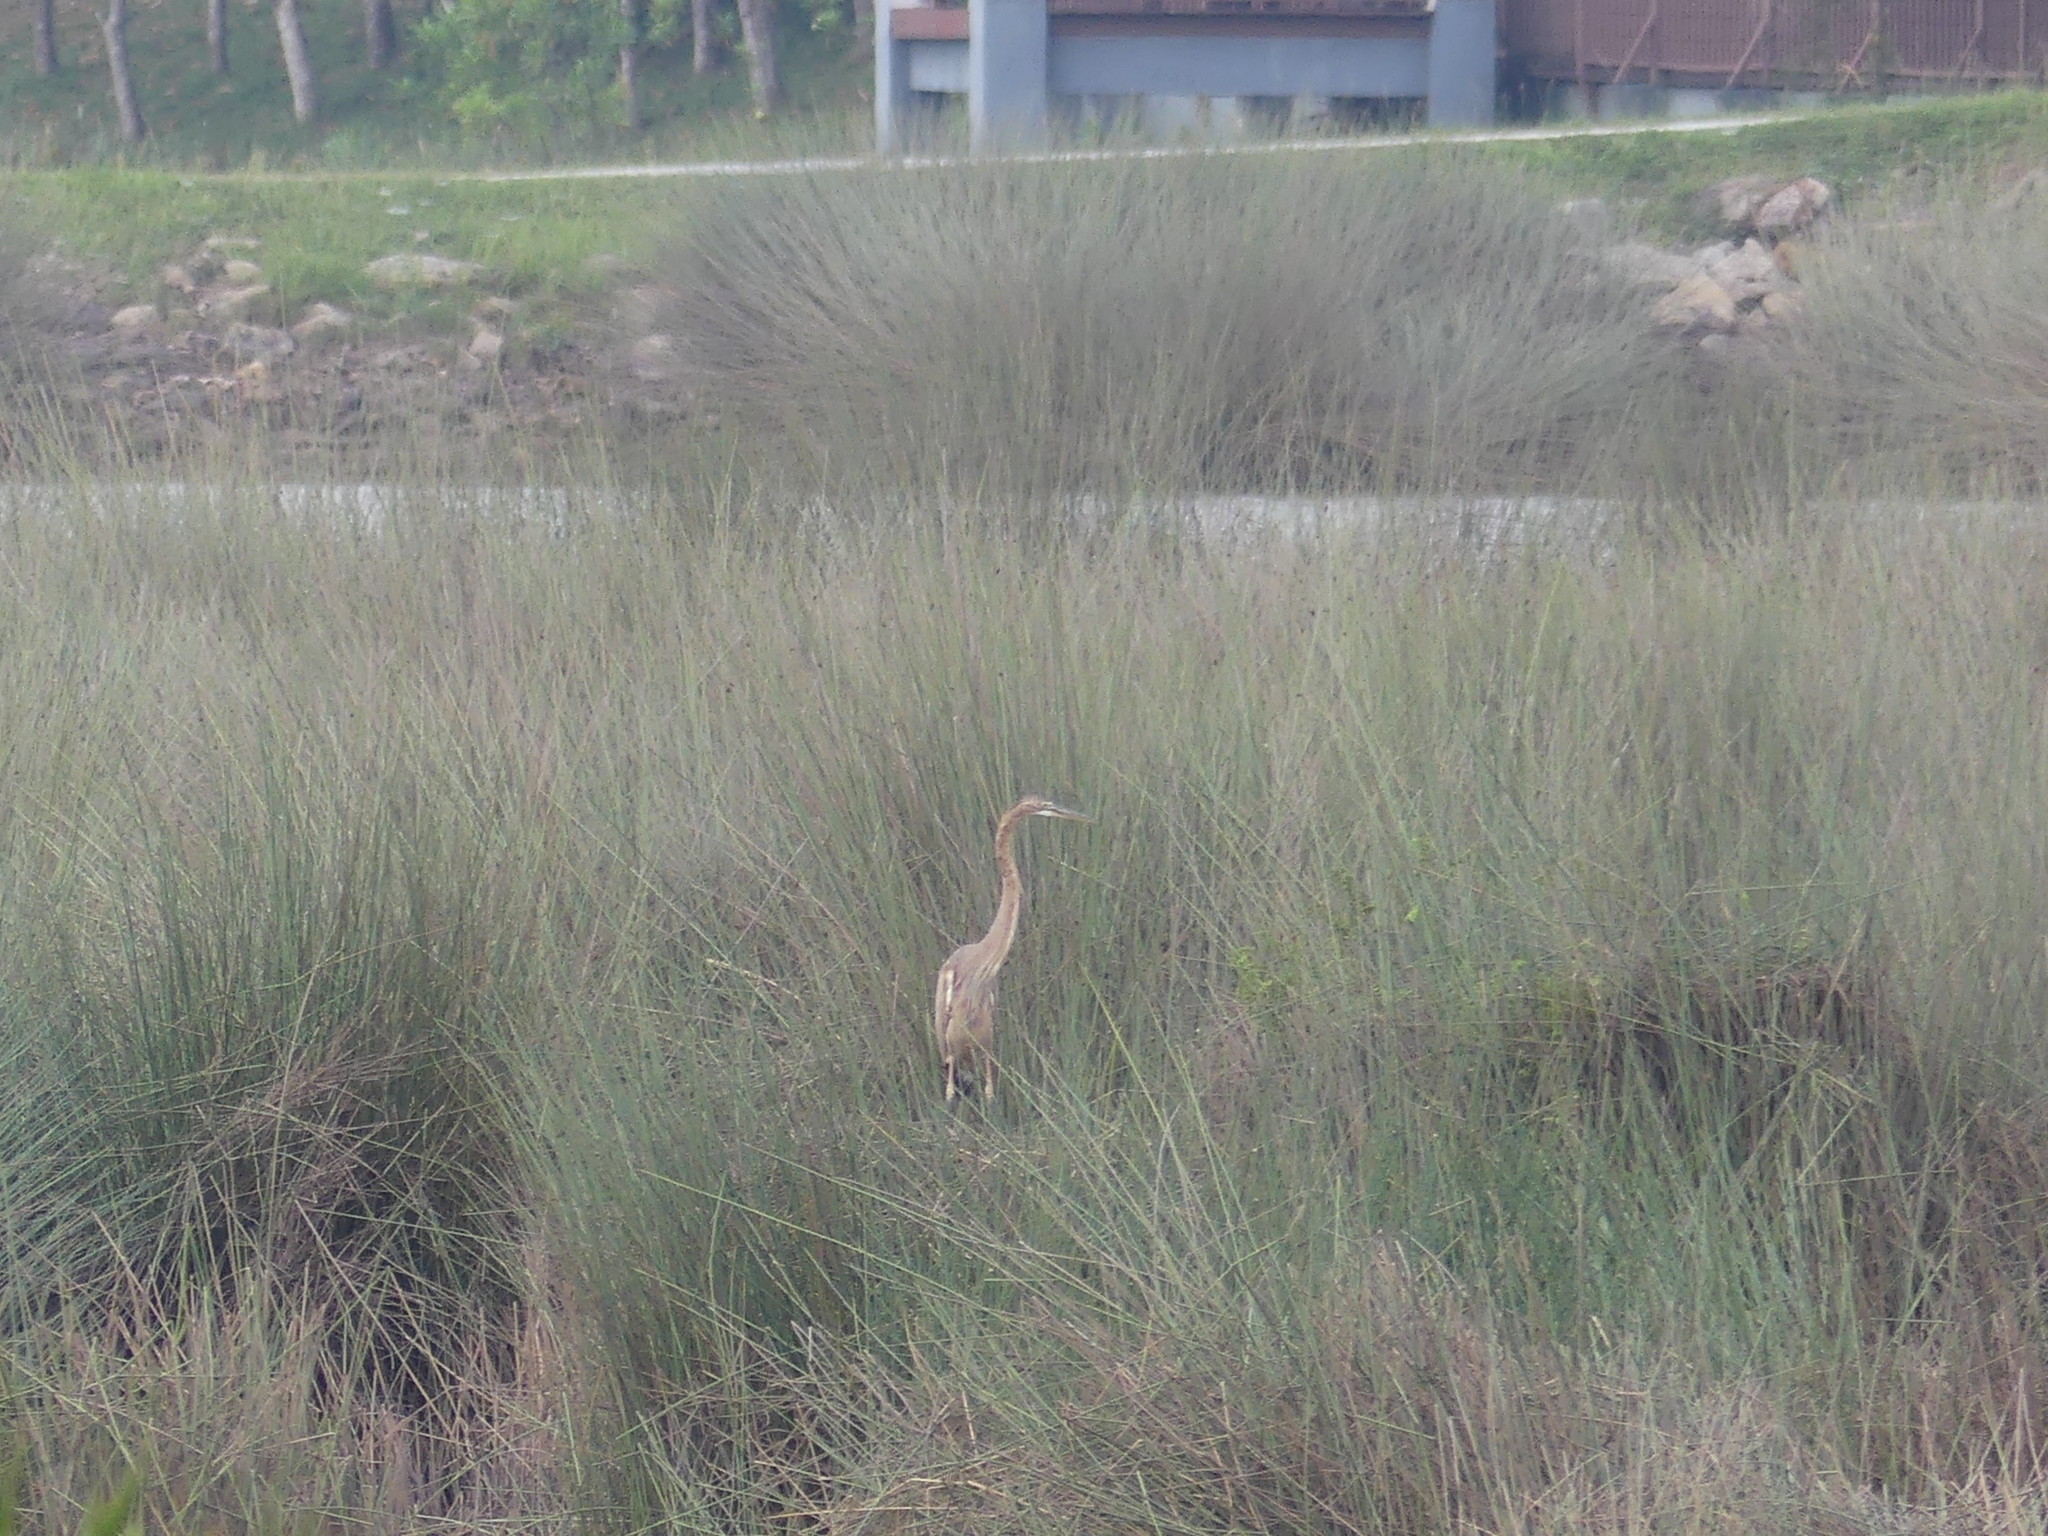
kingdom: Animalia
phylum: Chordata
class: Aves
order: Pelecaniformes
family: Ardeidae
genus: Ardea
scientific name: Ardea purpurea
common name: Purple heron
